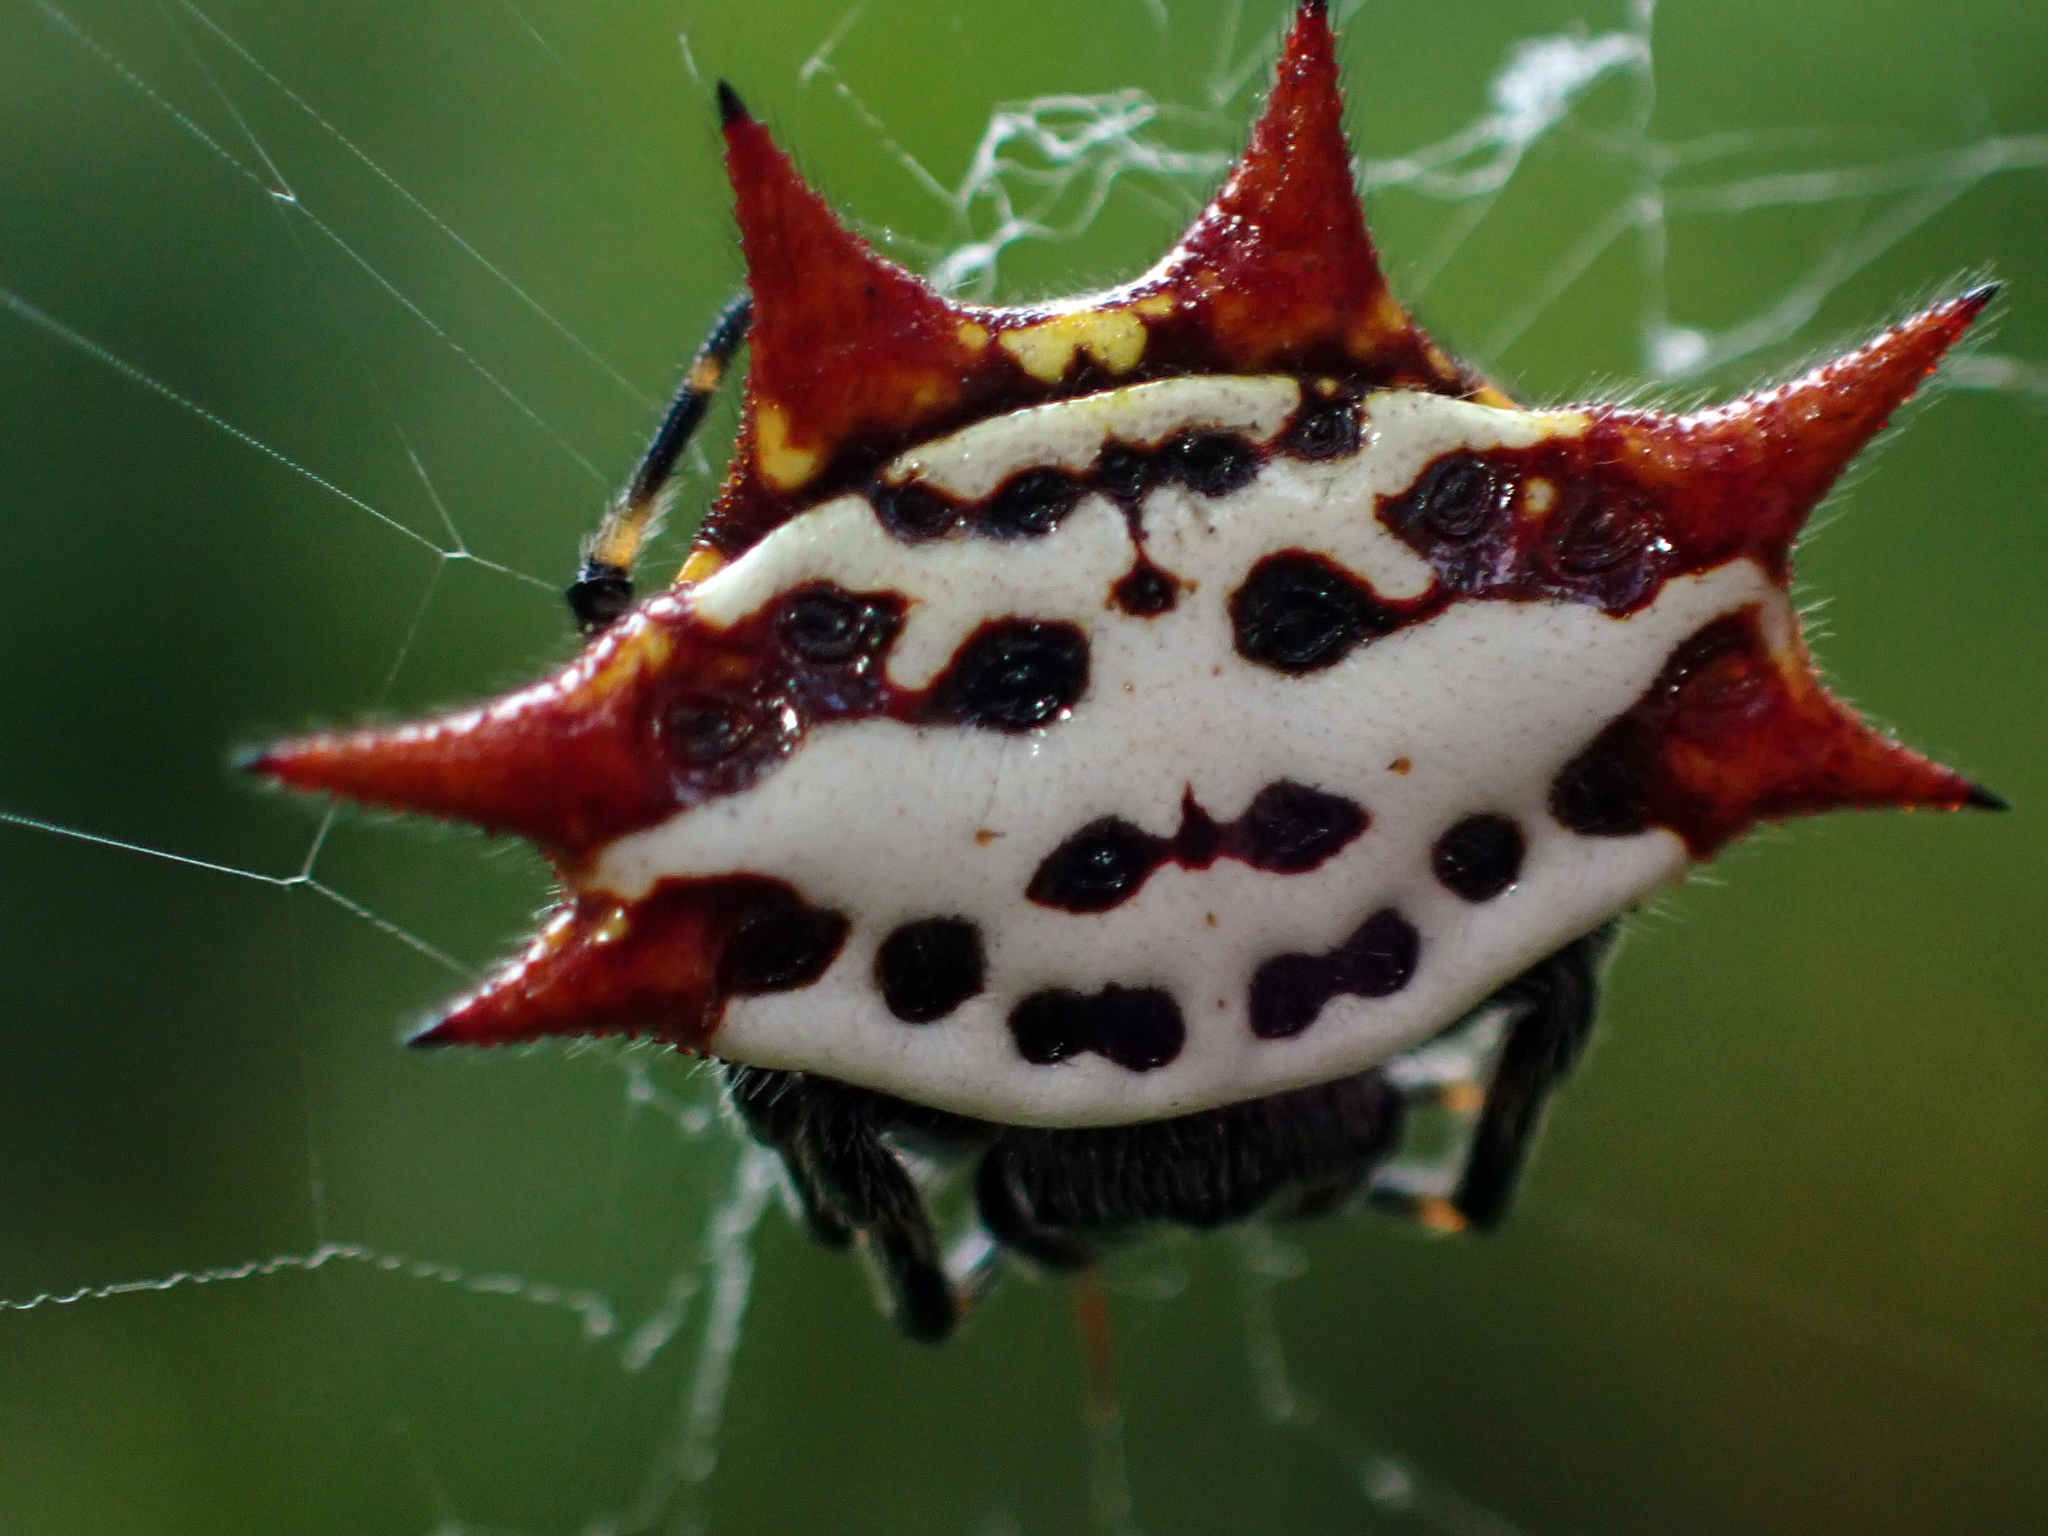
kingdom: Animalia
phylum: Arthropoda
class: Arachnida
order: Araneae
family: Araneidae
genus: Gasteracantha
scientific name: Gasteracantha cancriformis
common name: Orb weavers
